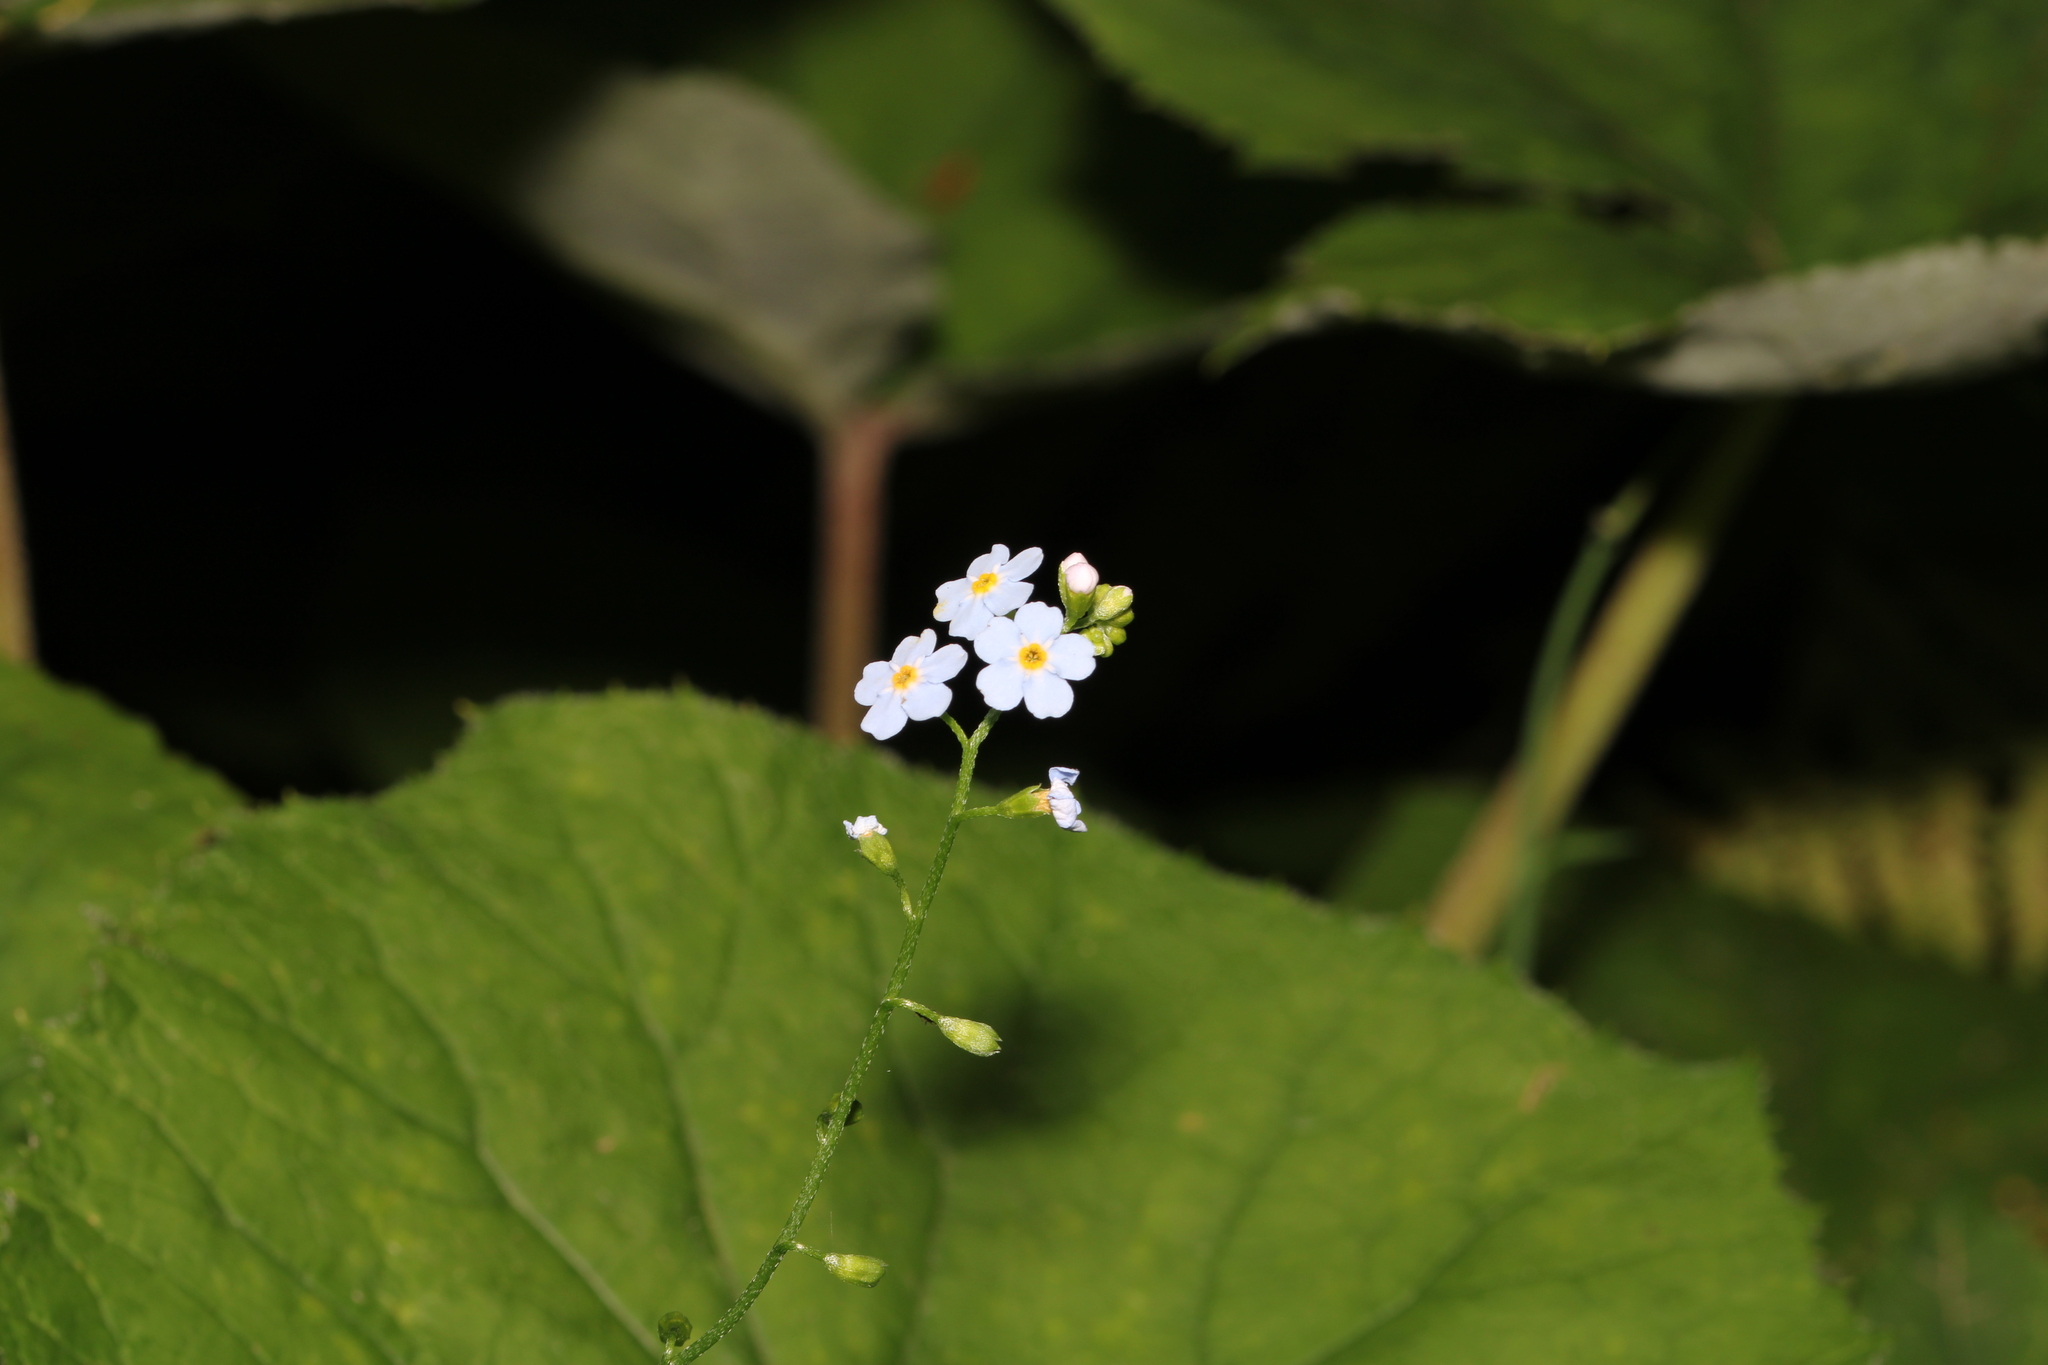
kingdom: Plantae
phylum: Tracheophyta
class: Magnoliopsida
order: Boraginales
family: Boraginaceae
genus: Myosotis
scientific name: Myosotis scorpioides
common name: Water forget-me-not
